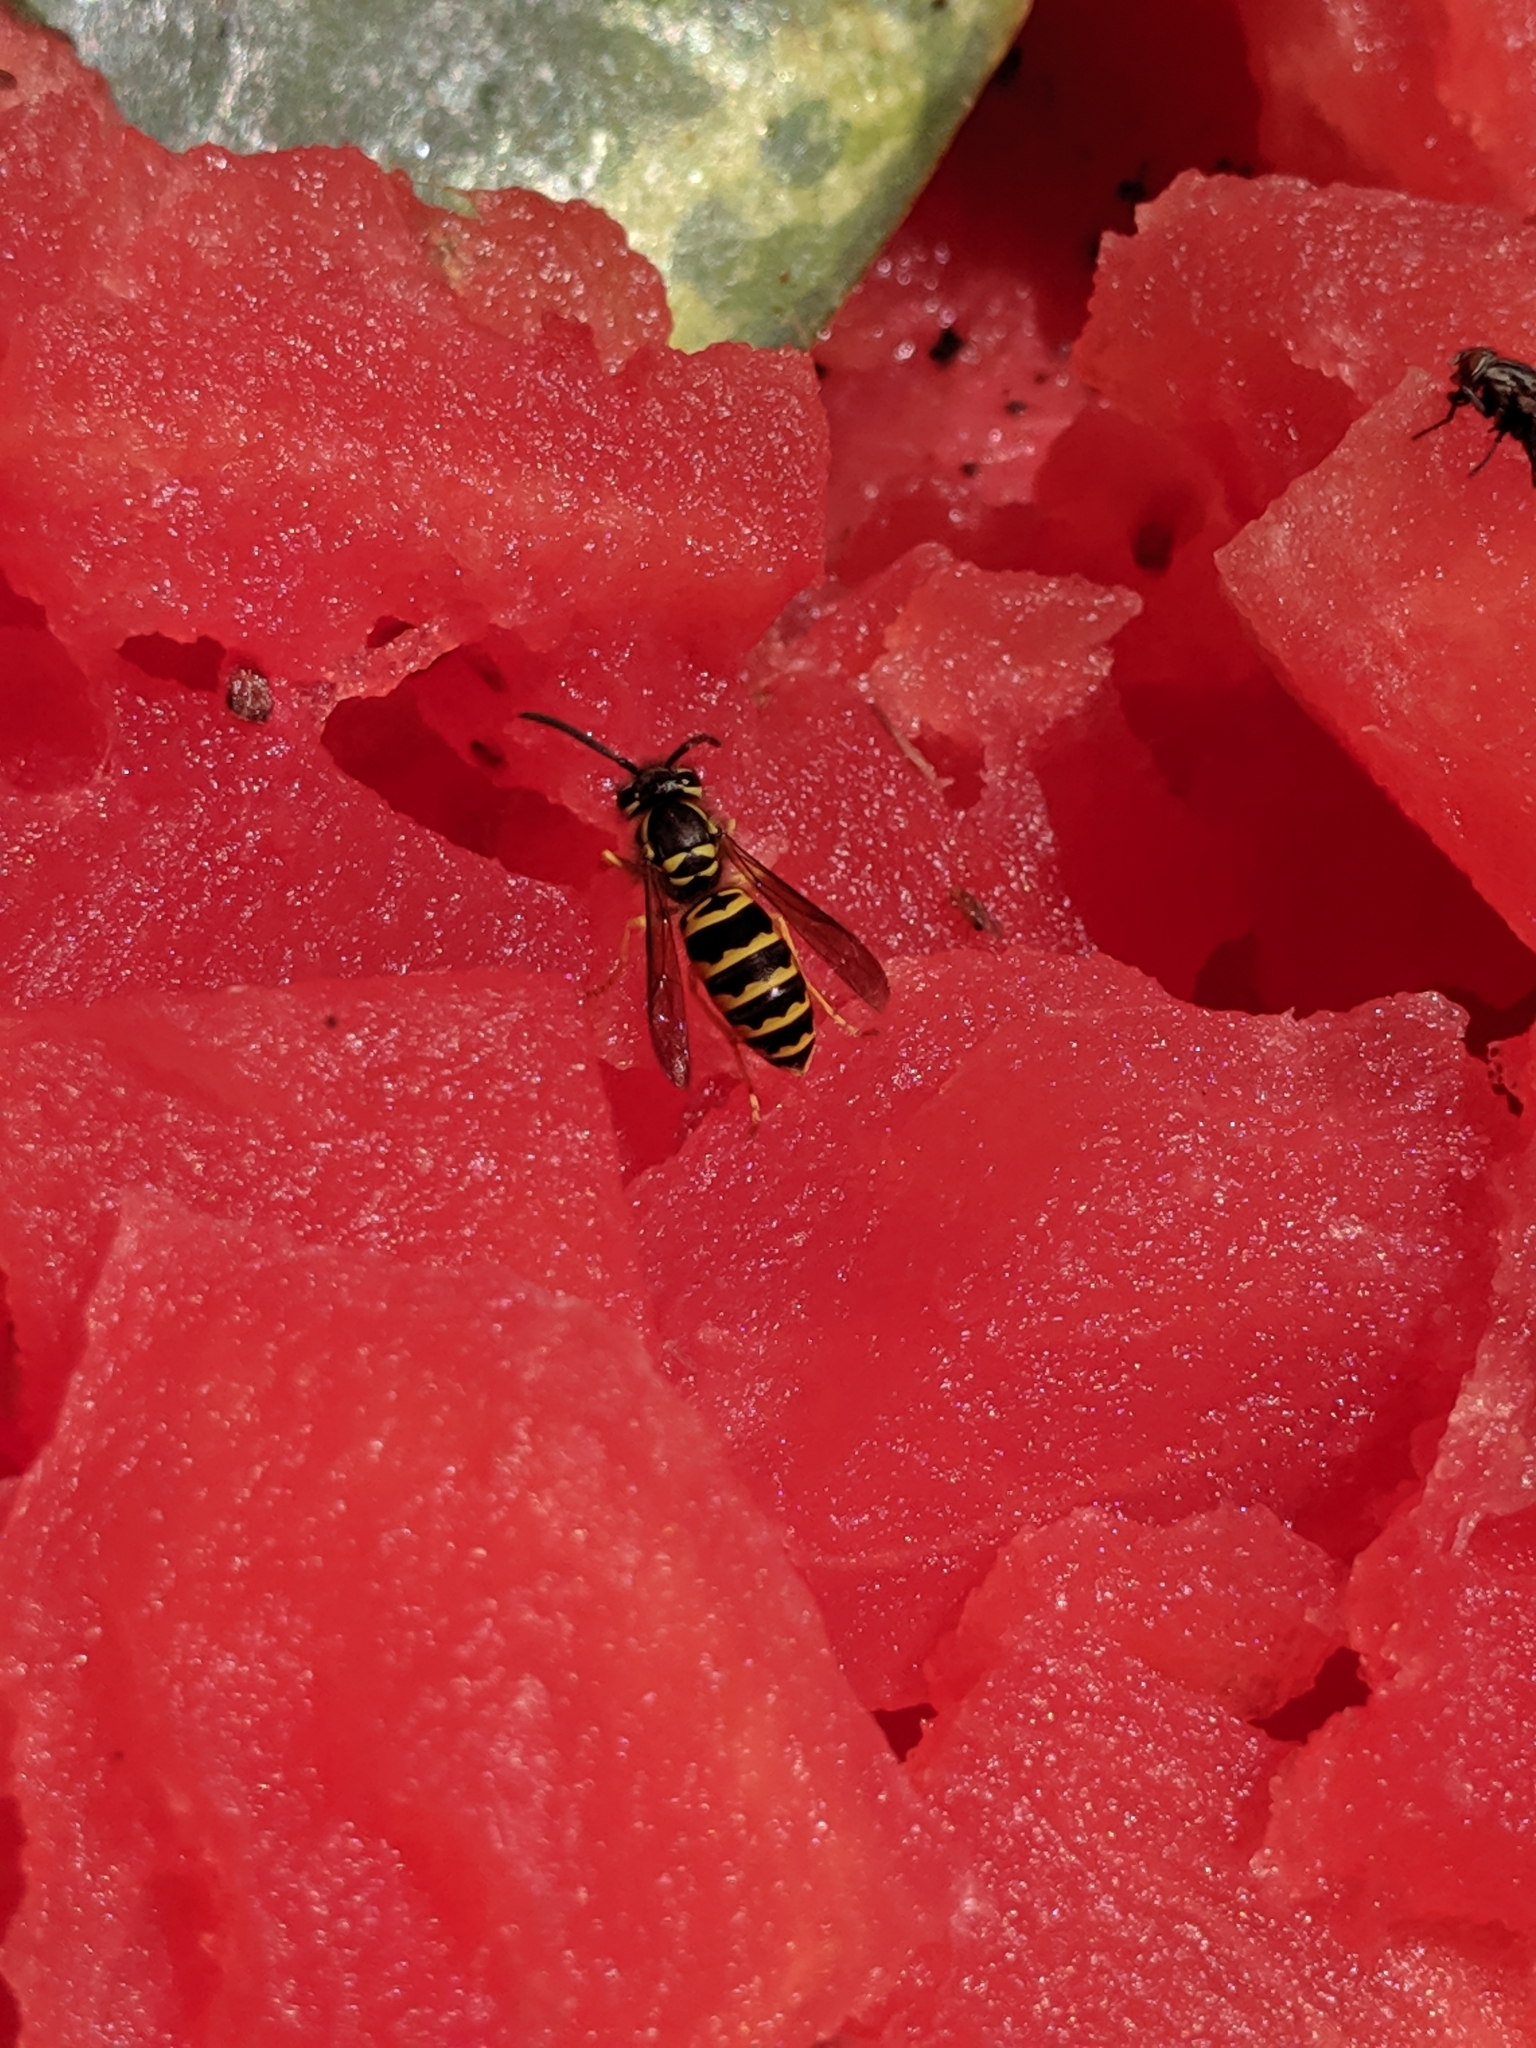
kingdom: Animalia
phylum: Arthropoda
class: Insecta
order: Hymenoptera
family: Vespidae
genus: Vespula
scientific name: Vespula maculifrons
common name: Eastern yellowjacket
